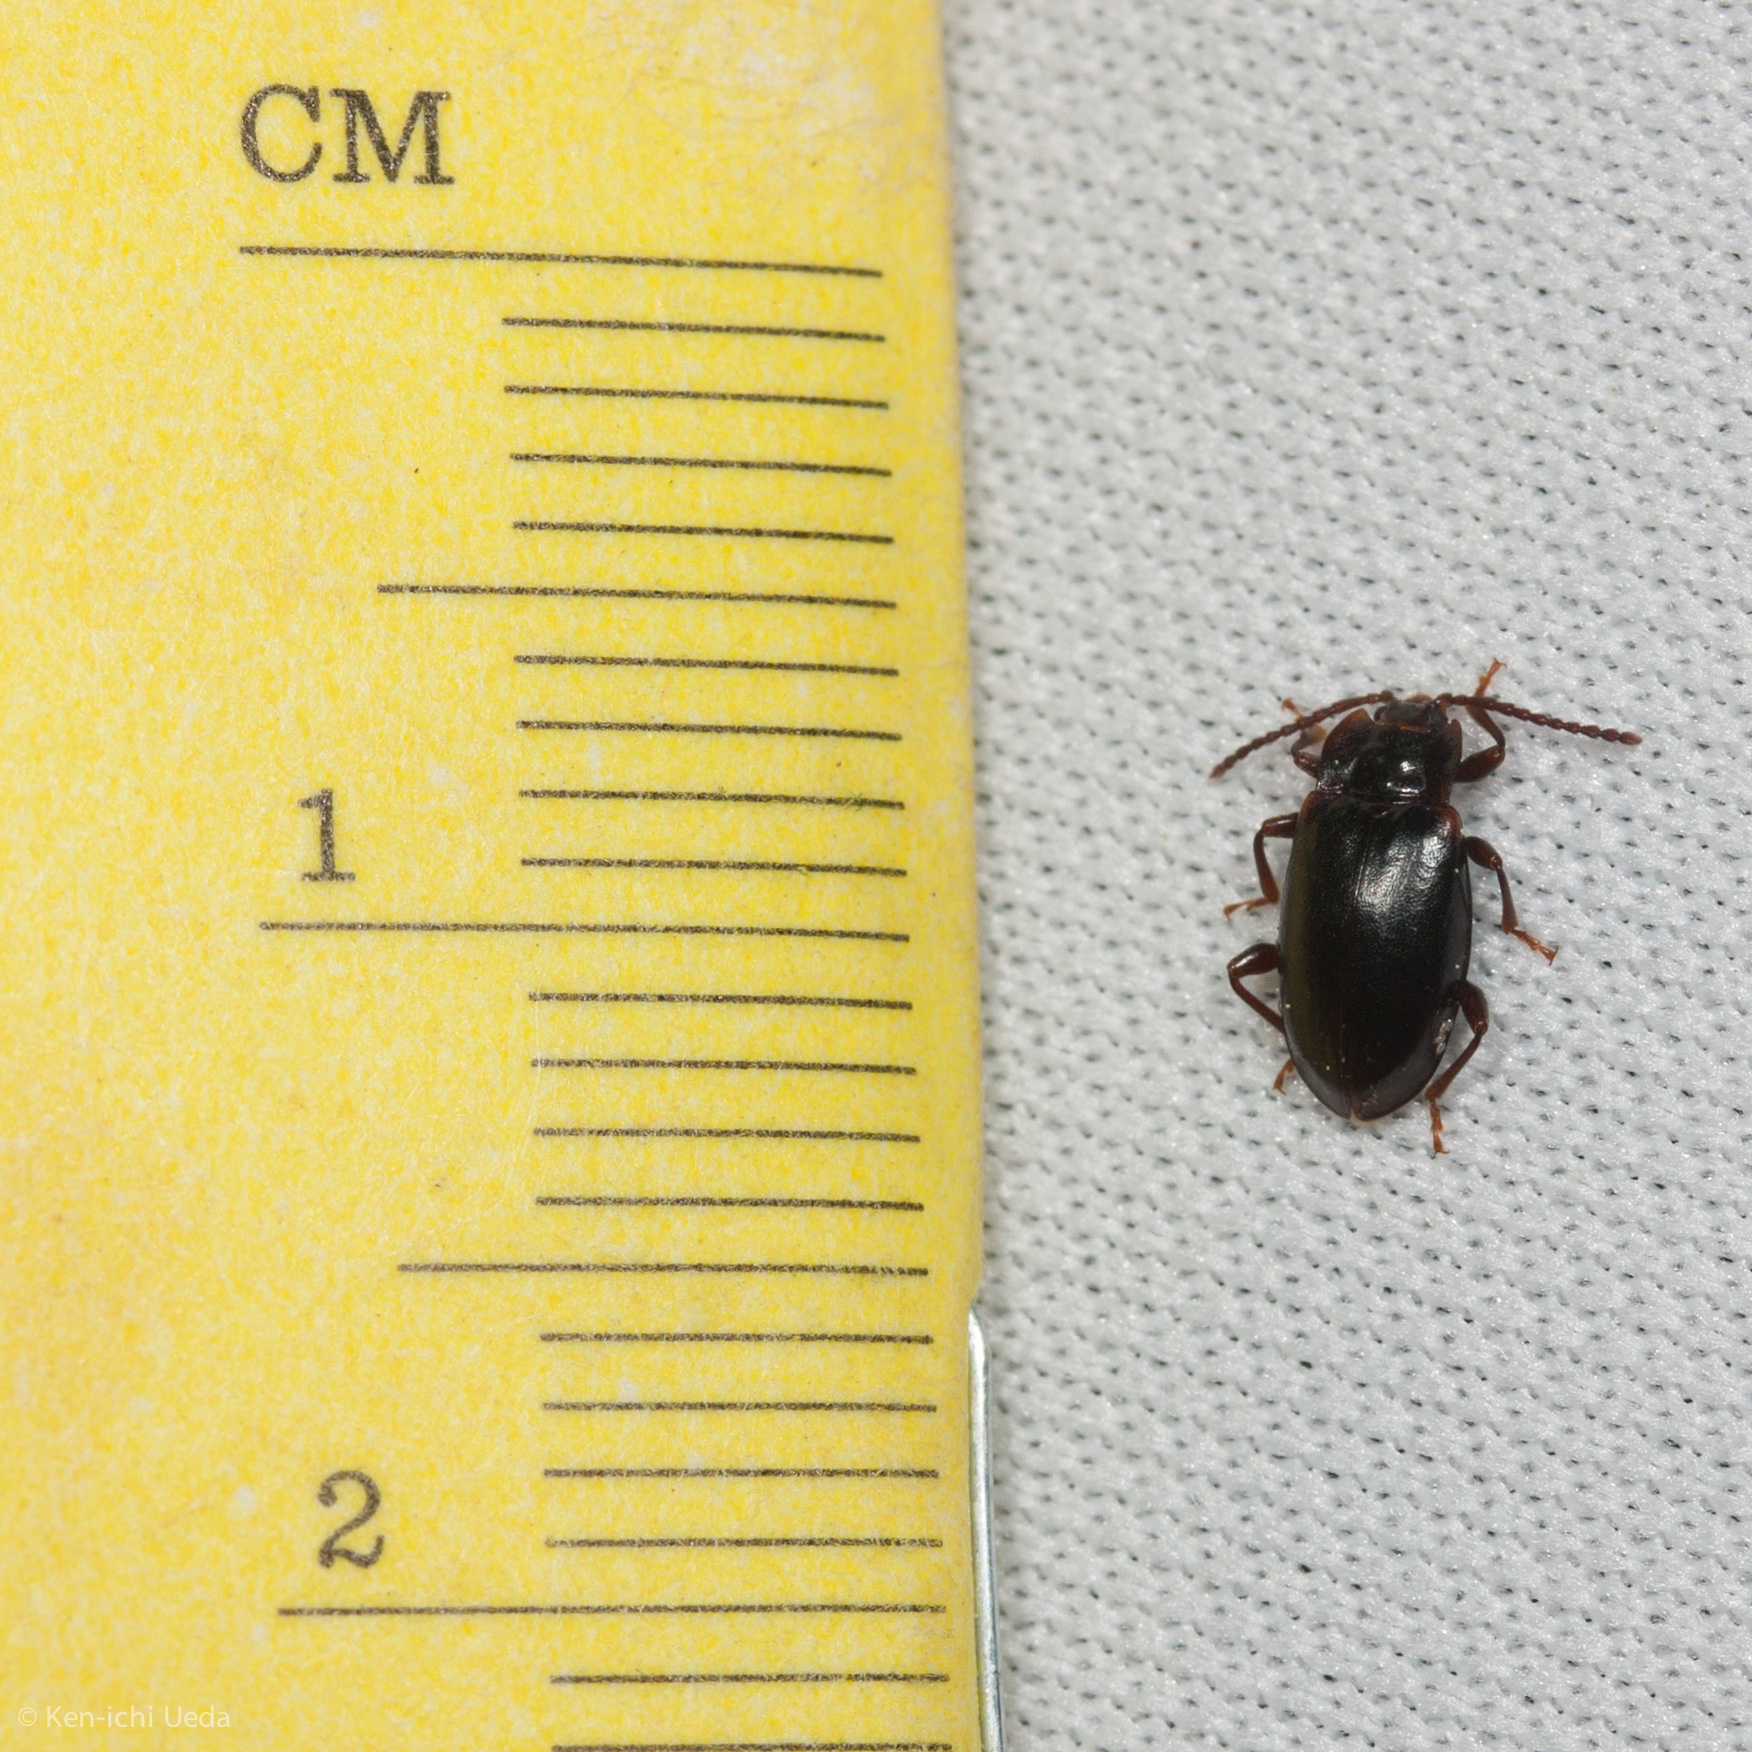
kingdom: Animalia
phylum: Arthropoda
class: Insecta
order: Coleoptera
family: Endomychidae
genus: Aphorista
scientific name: Aphorista morosa
